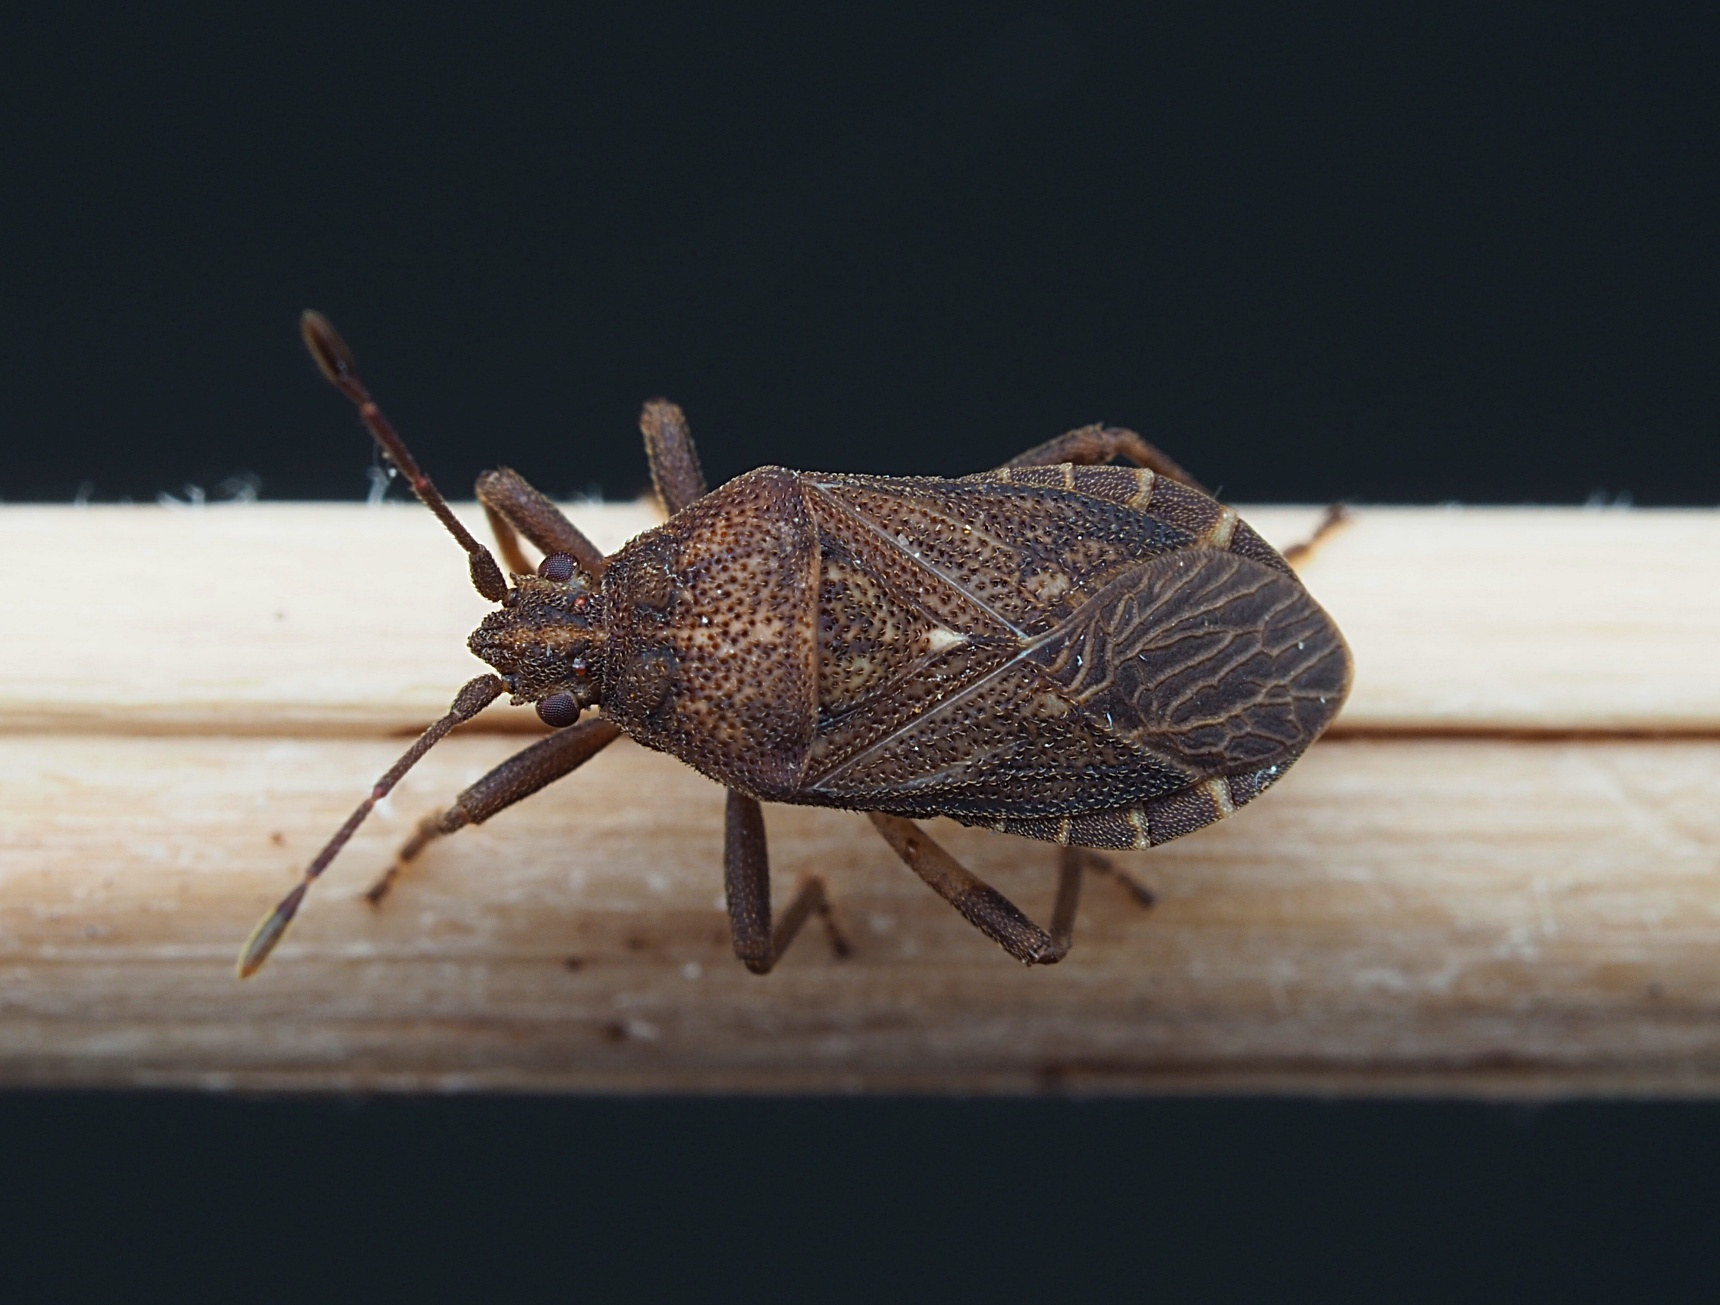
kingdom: Animalia
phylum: Arthropoda
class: Insecta
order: Hemiptera
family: Coreidae
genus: Acantholybas
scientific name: Acantholybas brunneus
